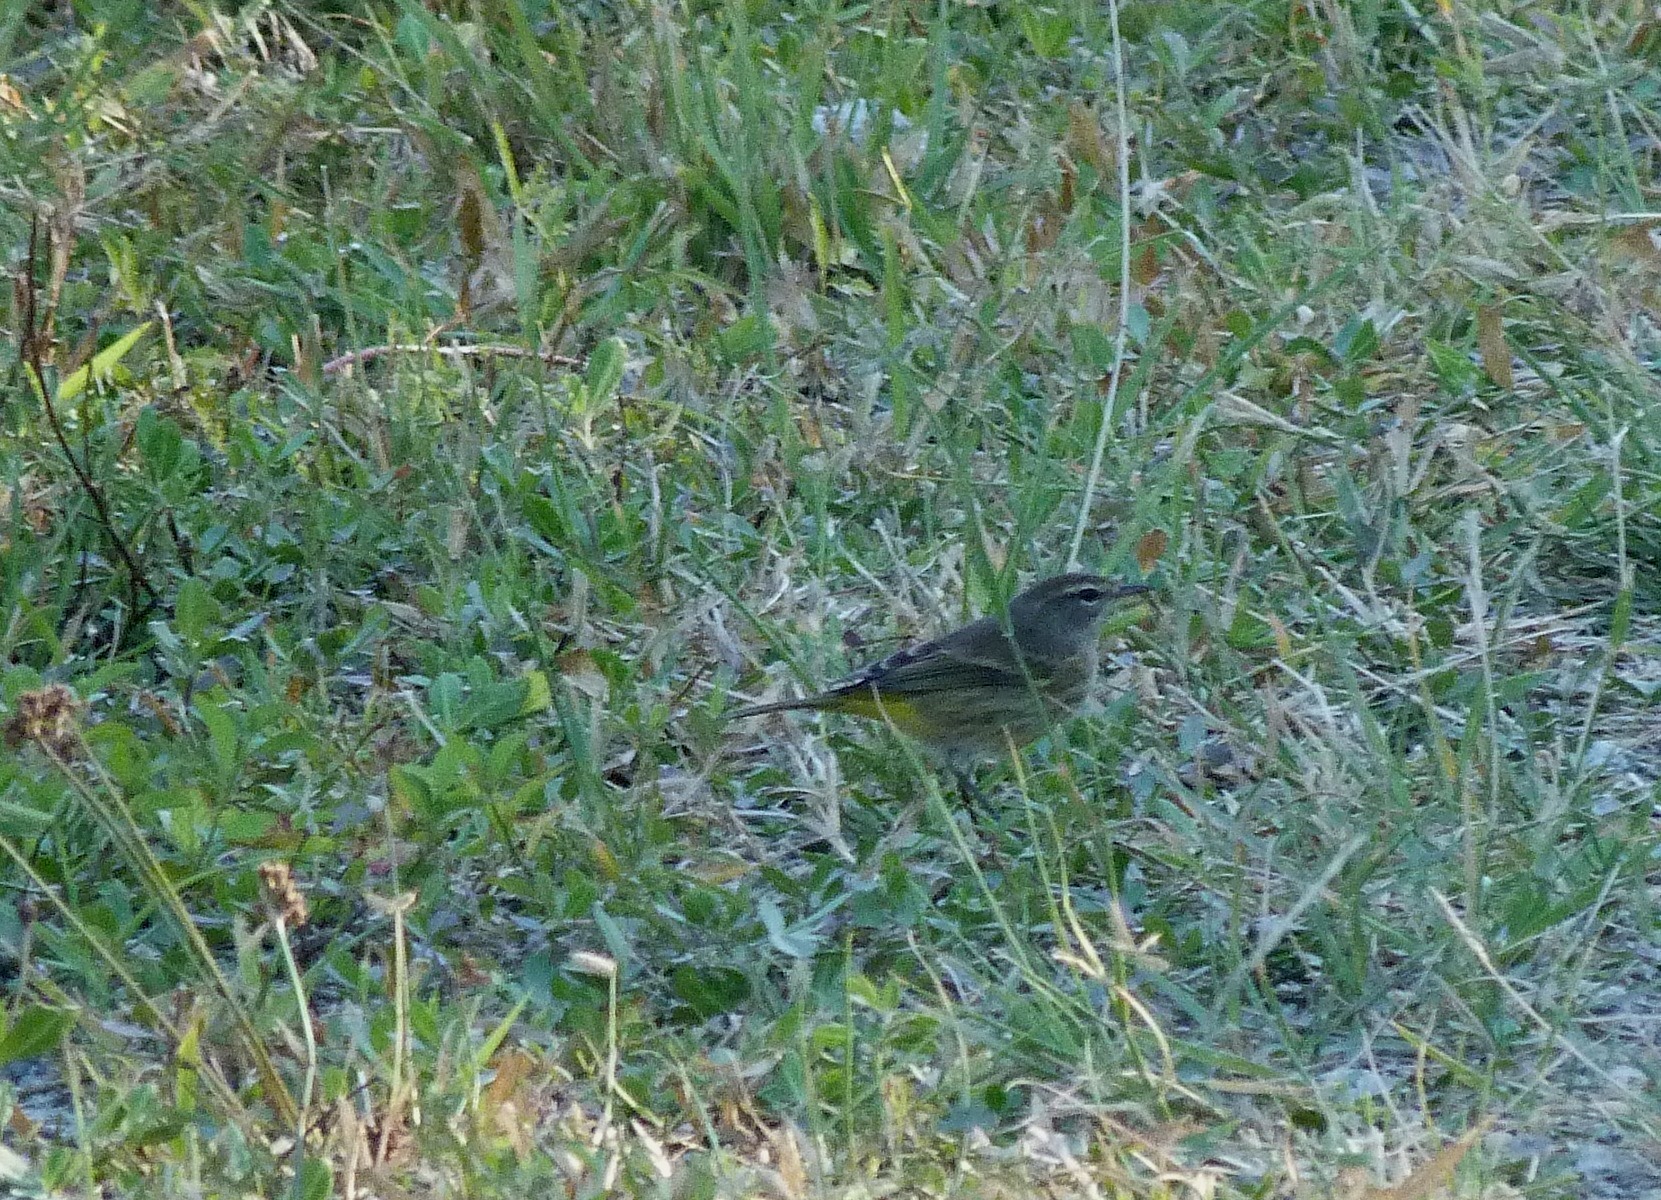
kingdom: Animalia
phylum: Chordata
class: Aves
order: Passeriformes
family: Parulidae
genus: Setophaga
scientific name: Setophaga palmarum
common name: Palm warbler
